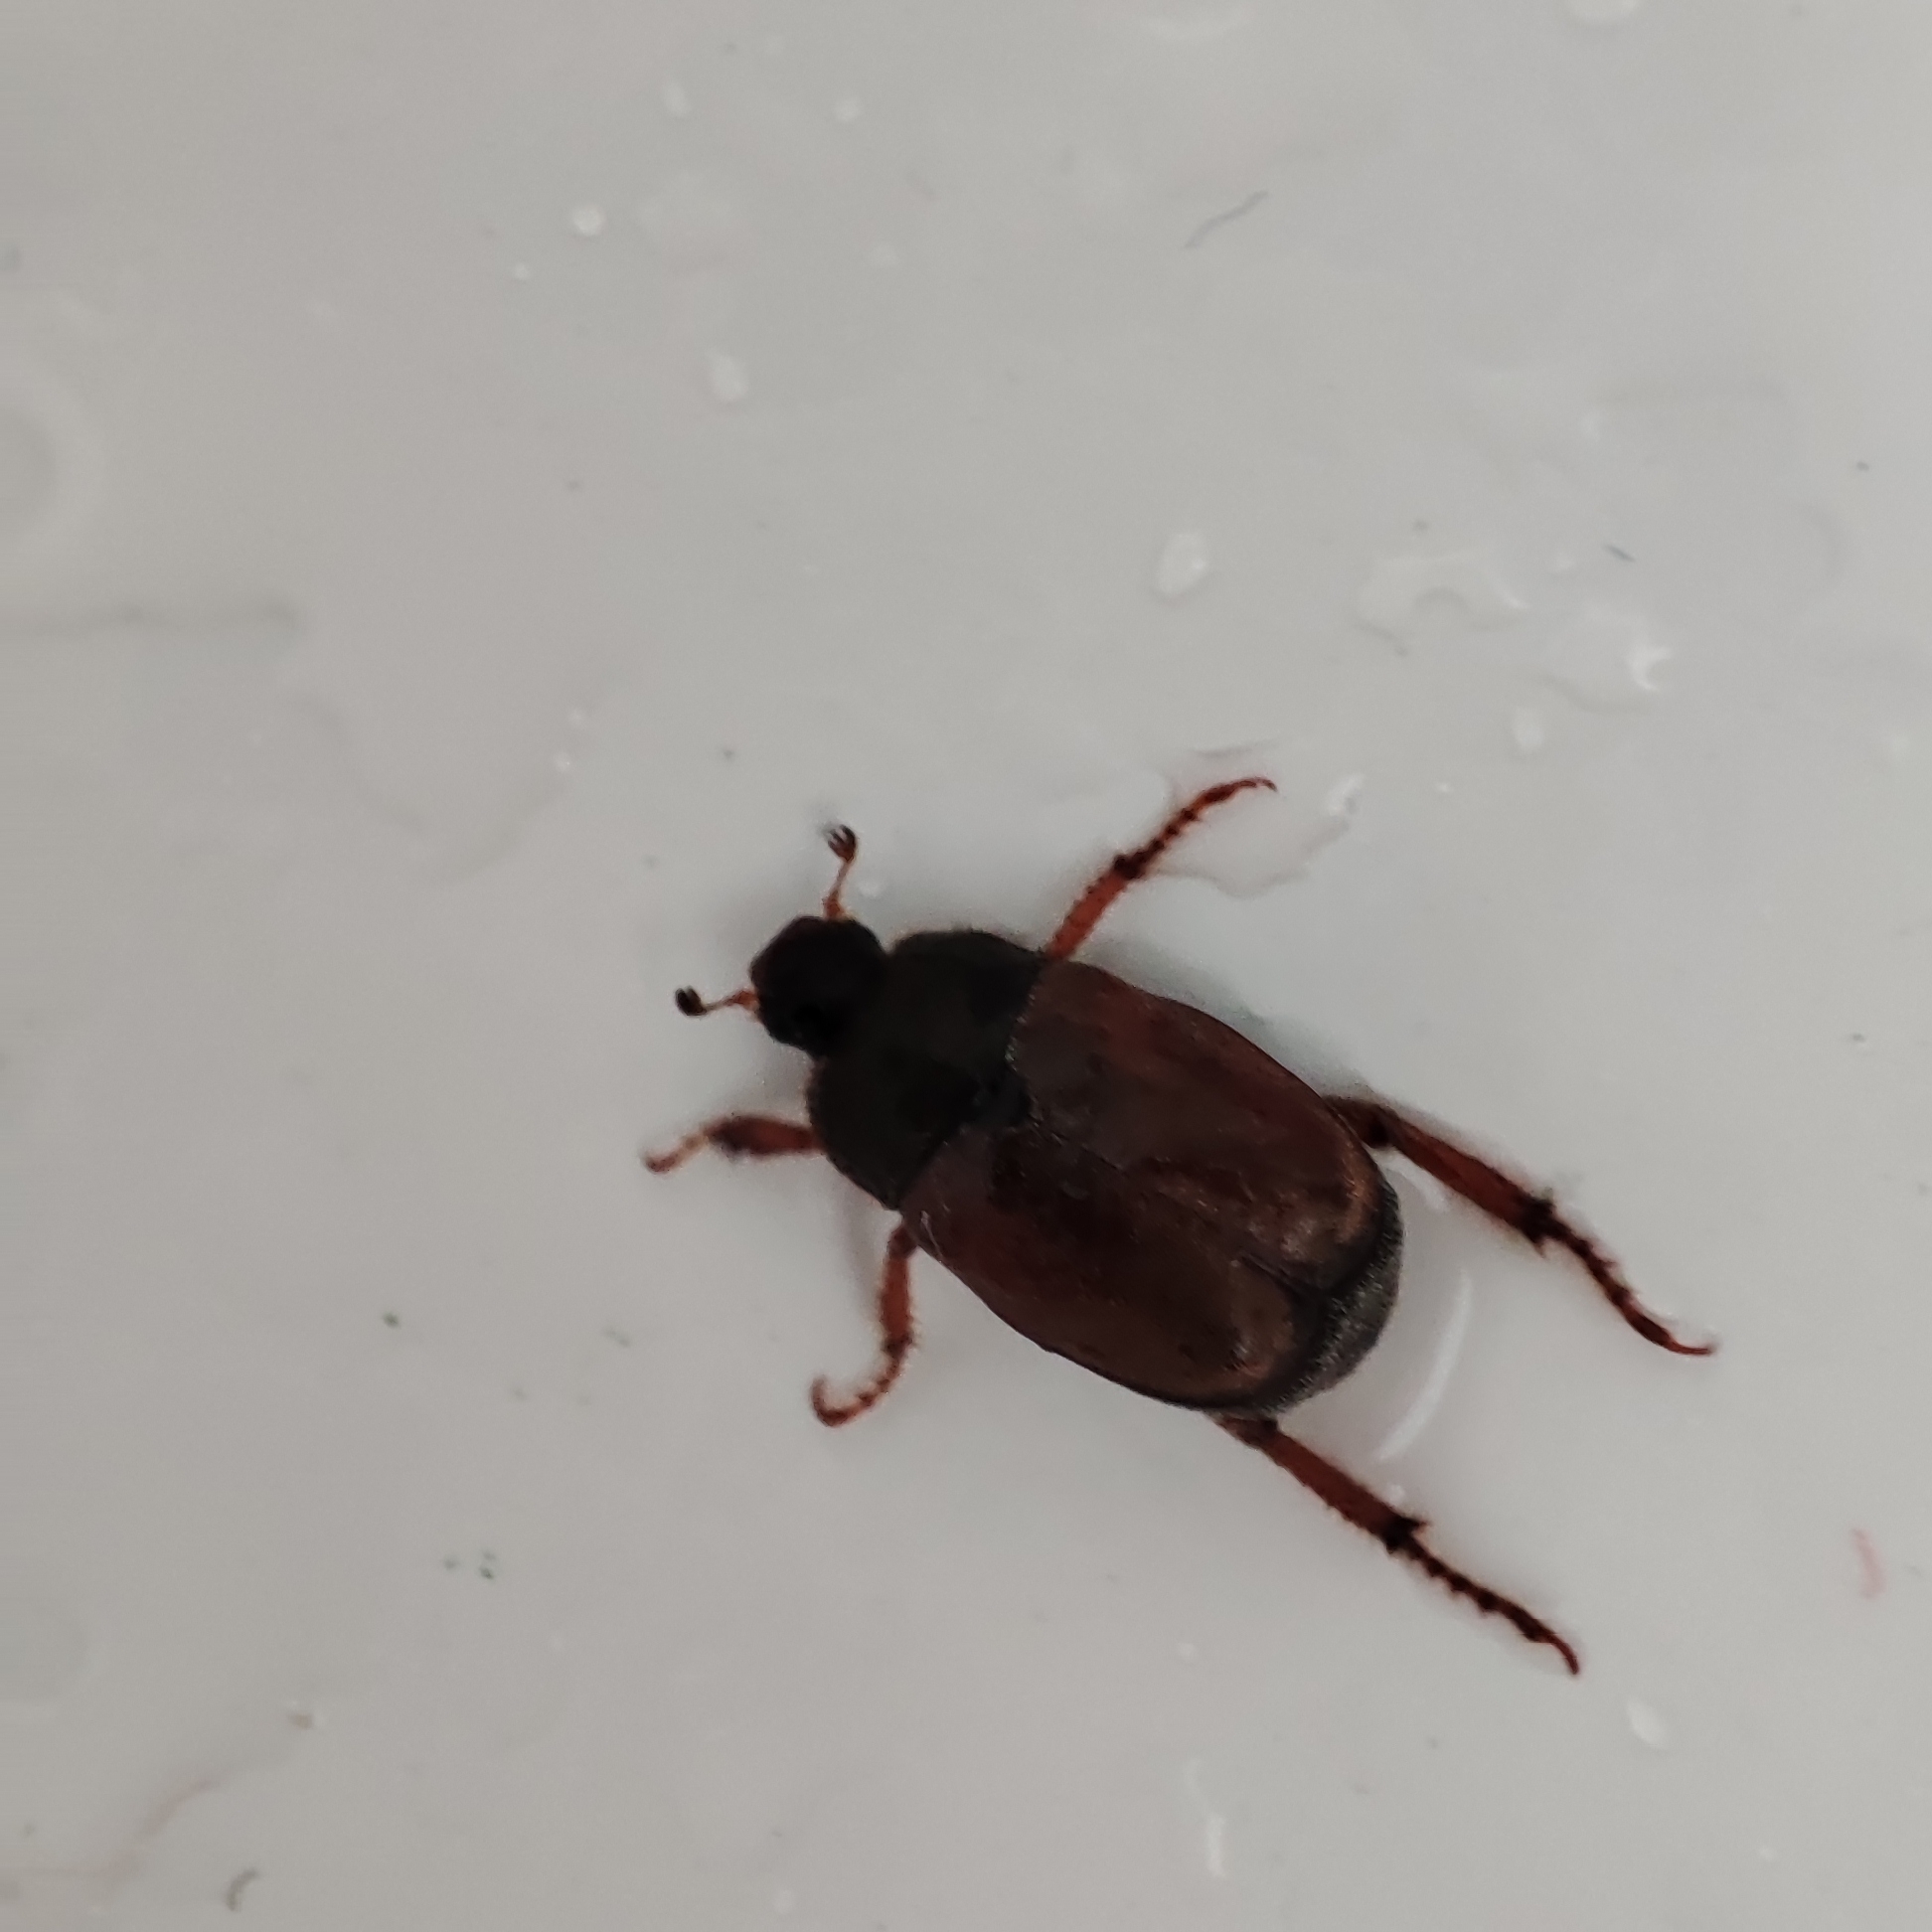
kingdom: Animalia
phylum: Arthropoda
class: Insecta
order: Coleoptera
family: Scarabaeidae
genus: Hoplia
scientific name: Hoplia philanthus
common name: Welsh chafer
